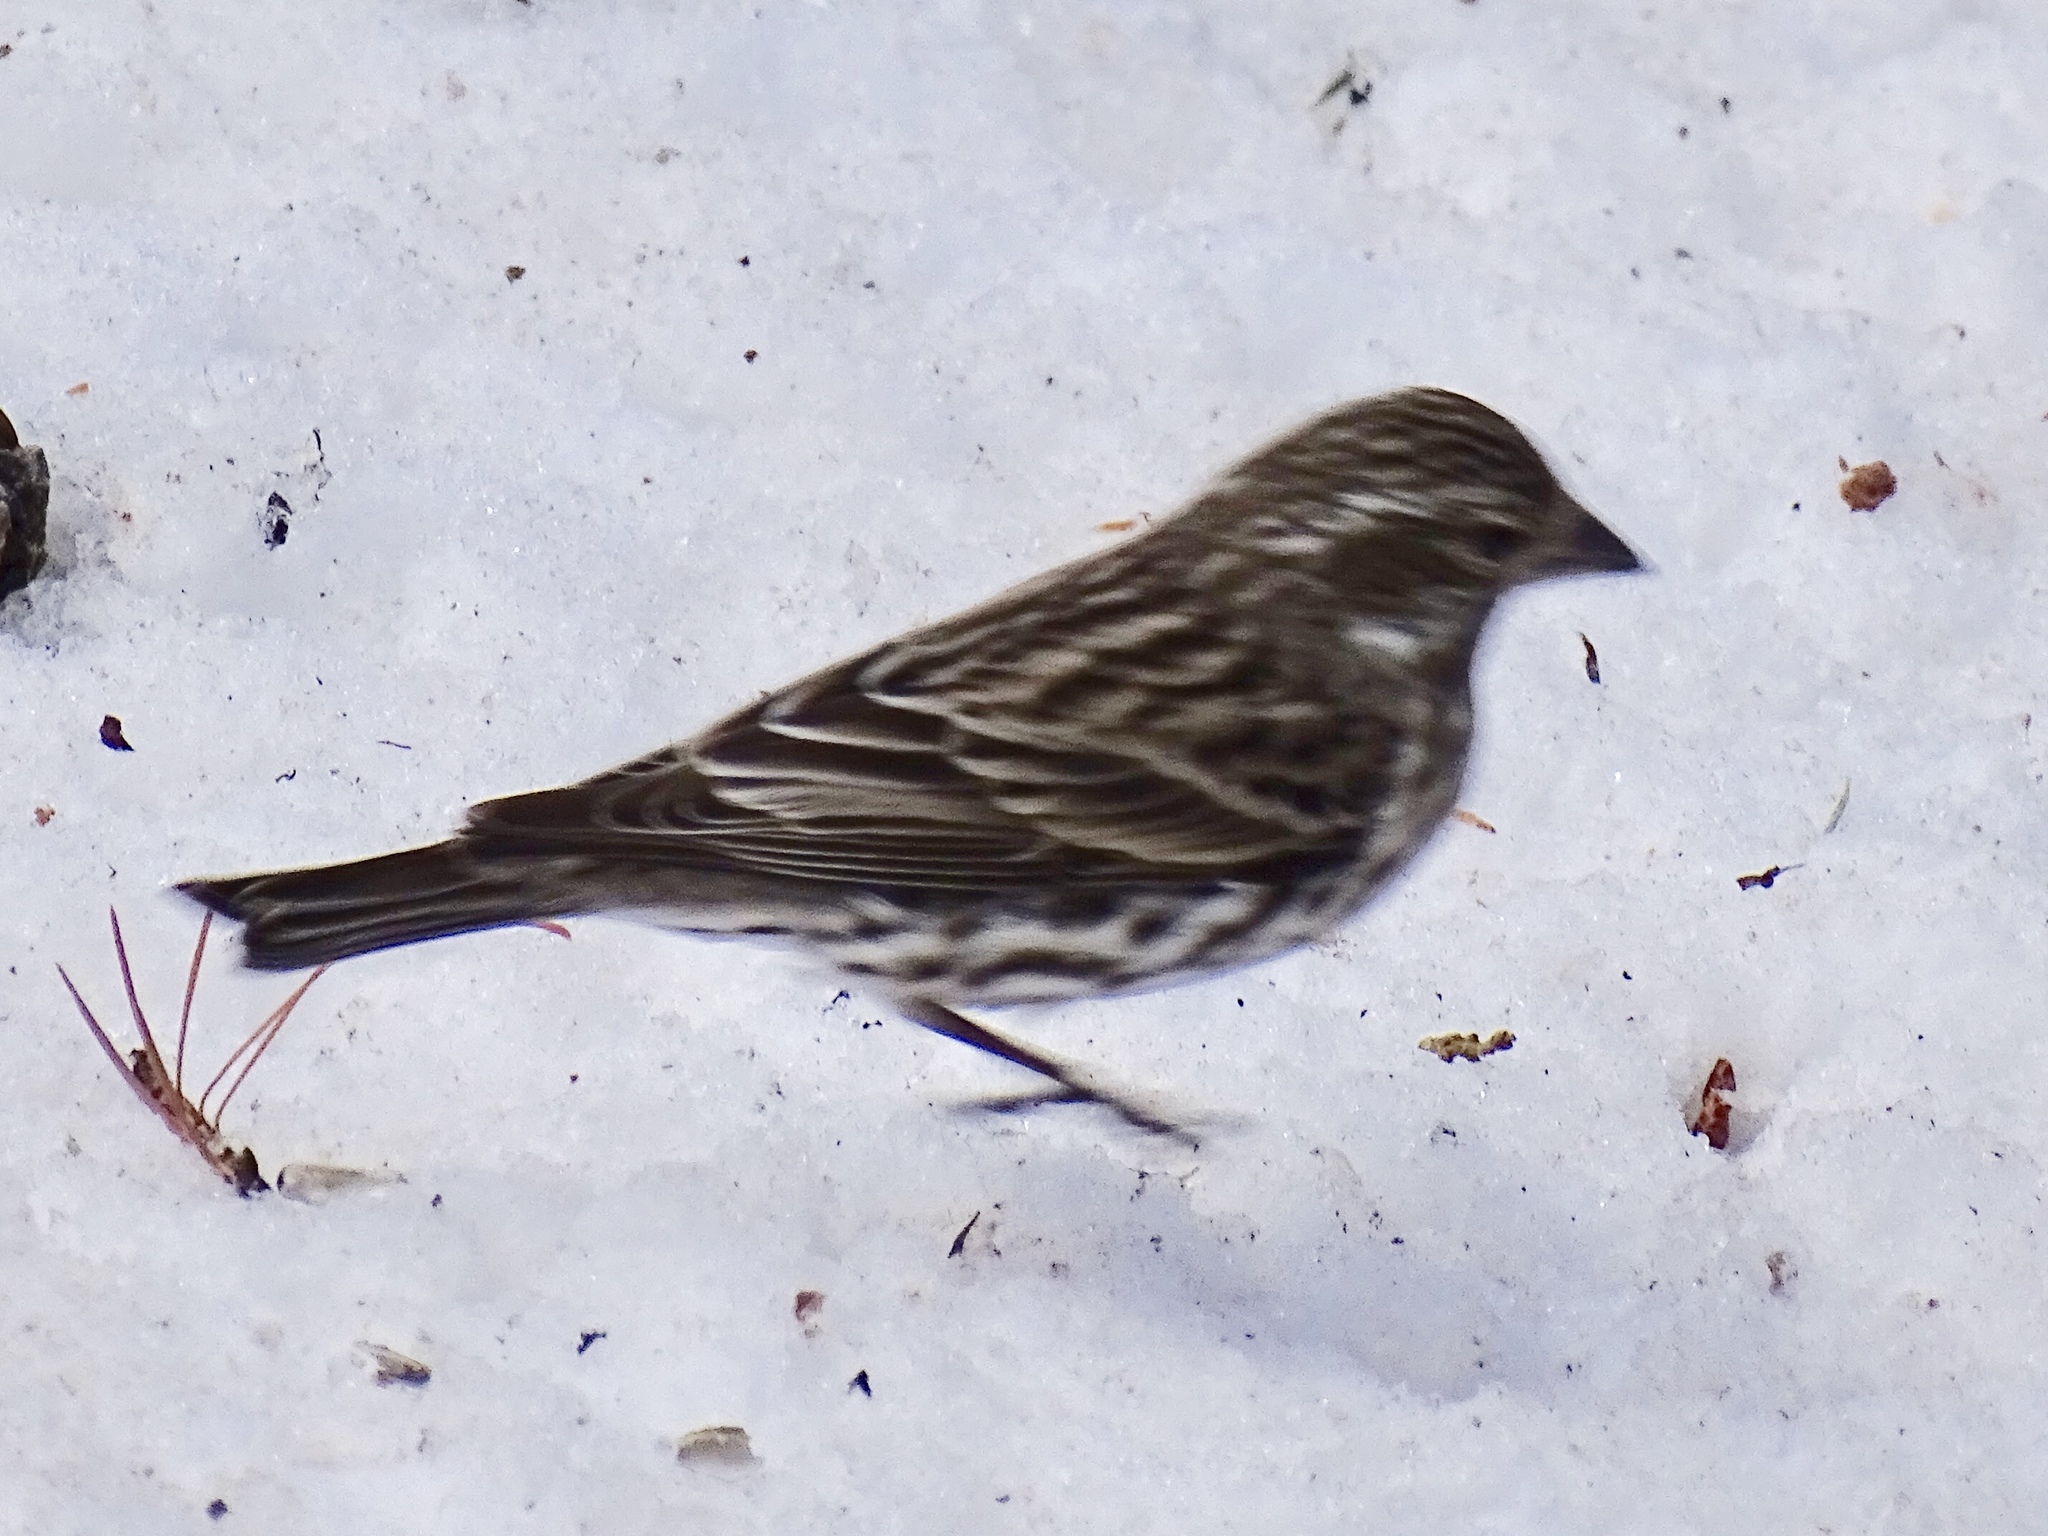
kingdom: Animalia
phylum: Chordata
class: Aves
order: Passeriformes
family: Fringillidae
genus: Haemorhous
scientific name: Haemorhous cassinii
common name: Cassin's finch
